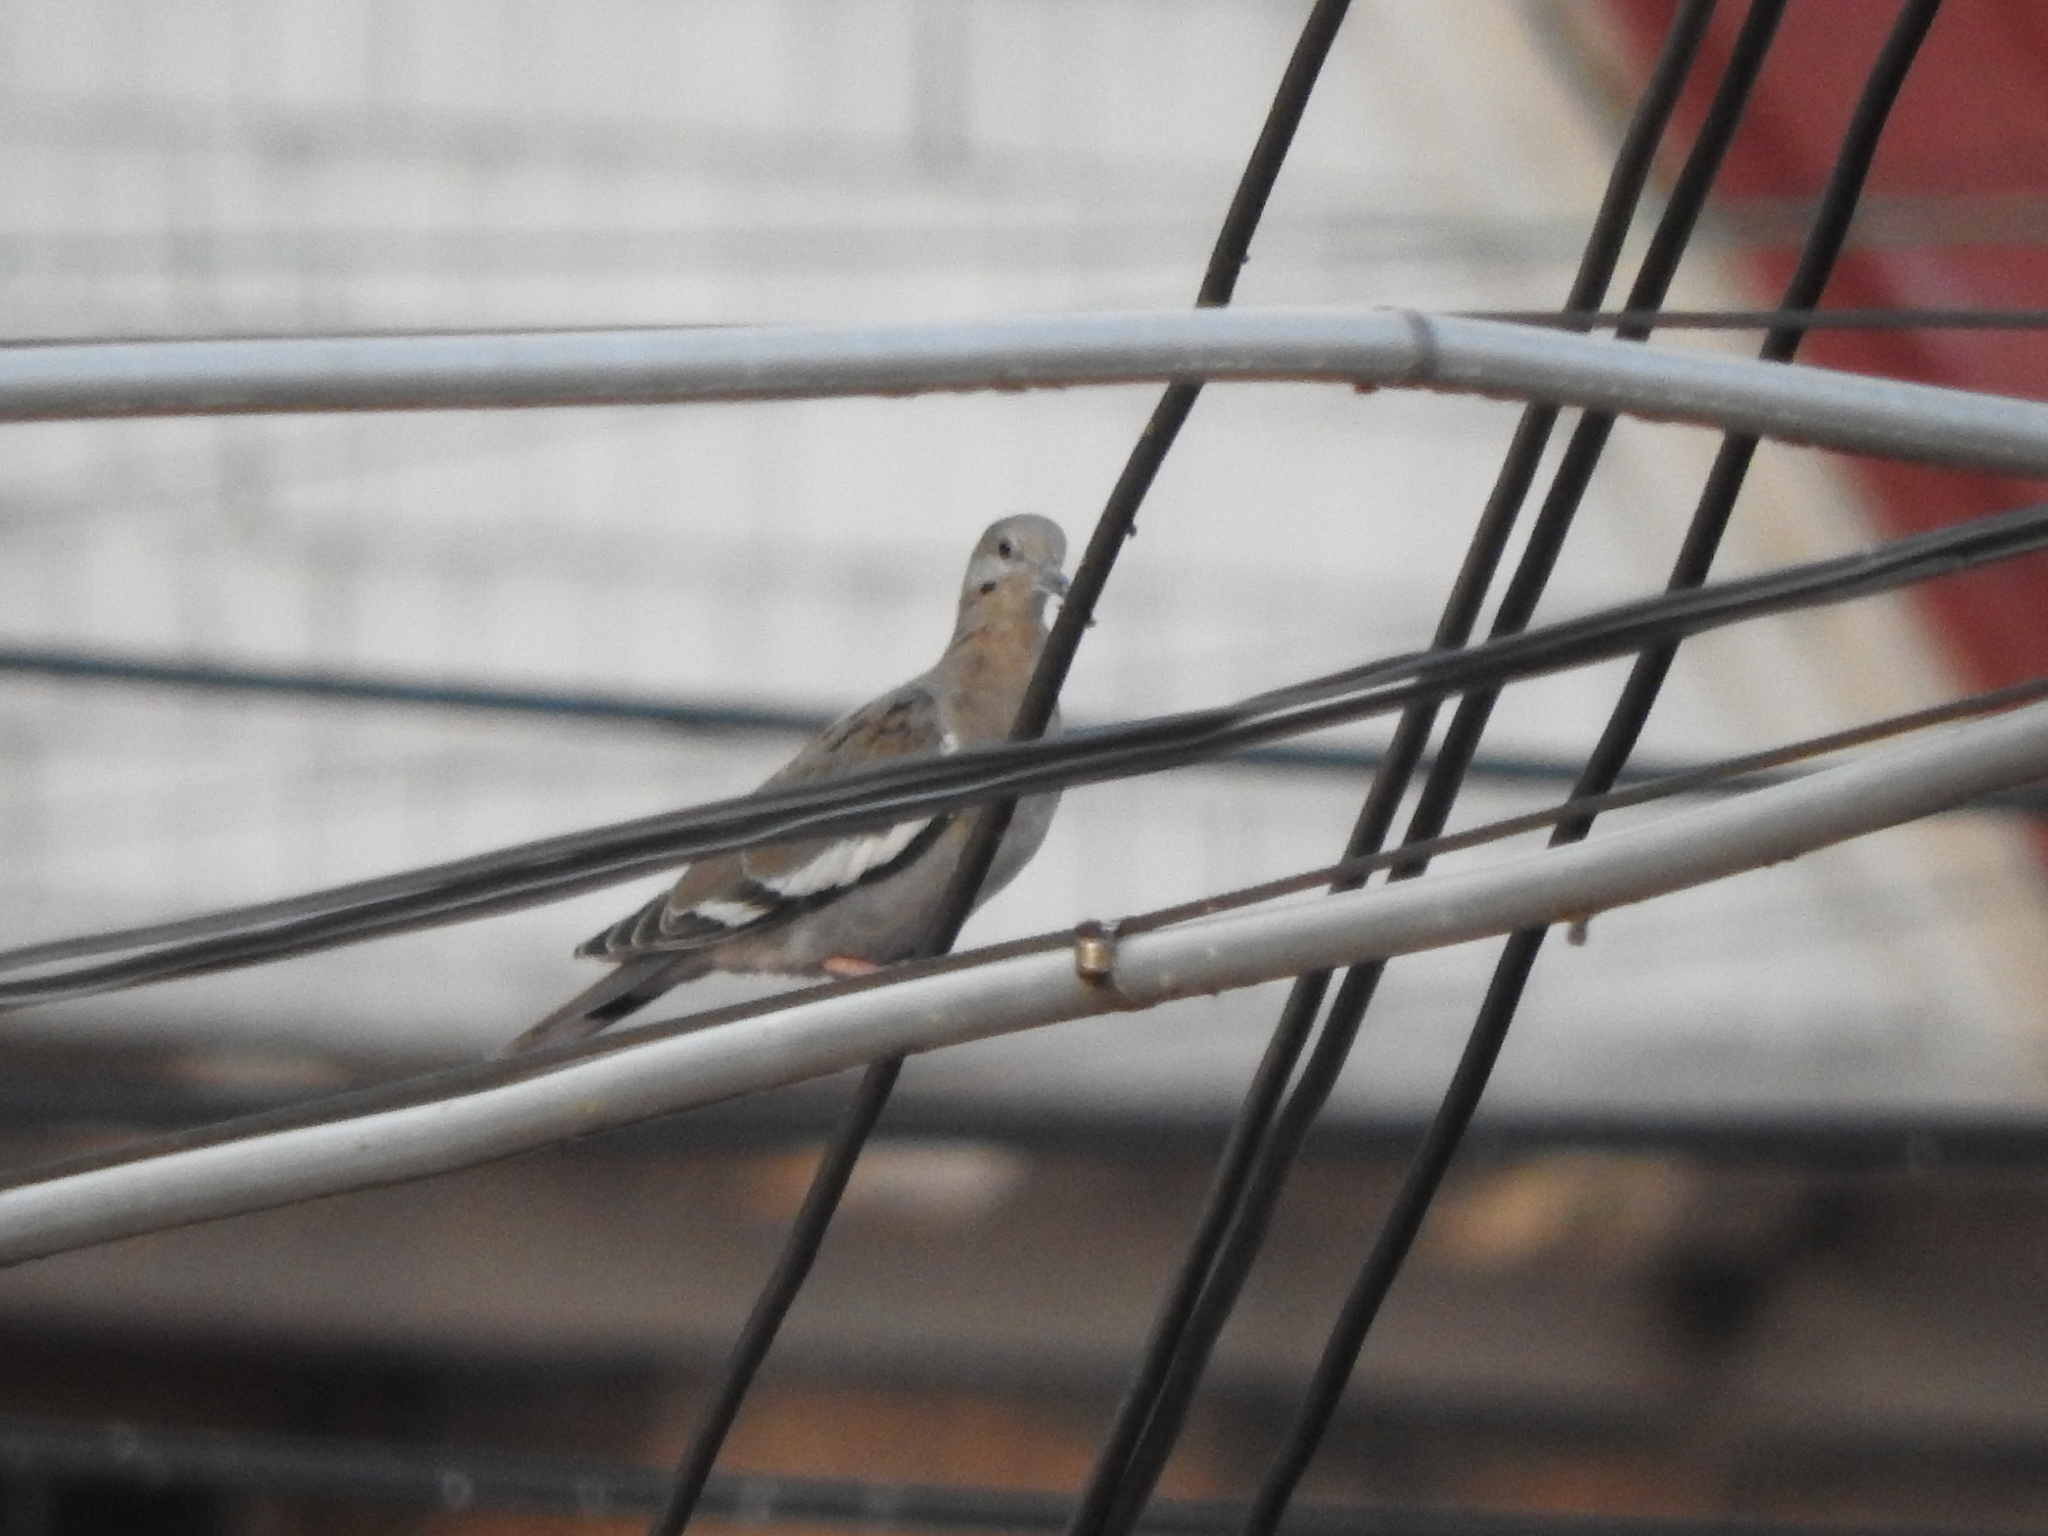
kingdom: Animalia
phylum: Chordata
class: Aves
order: Columbiformes
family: Columbidae
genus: Zenaida
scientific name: Zenaida asiatica
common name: White-winged dove
